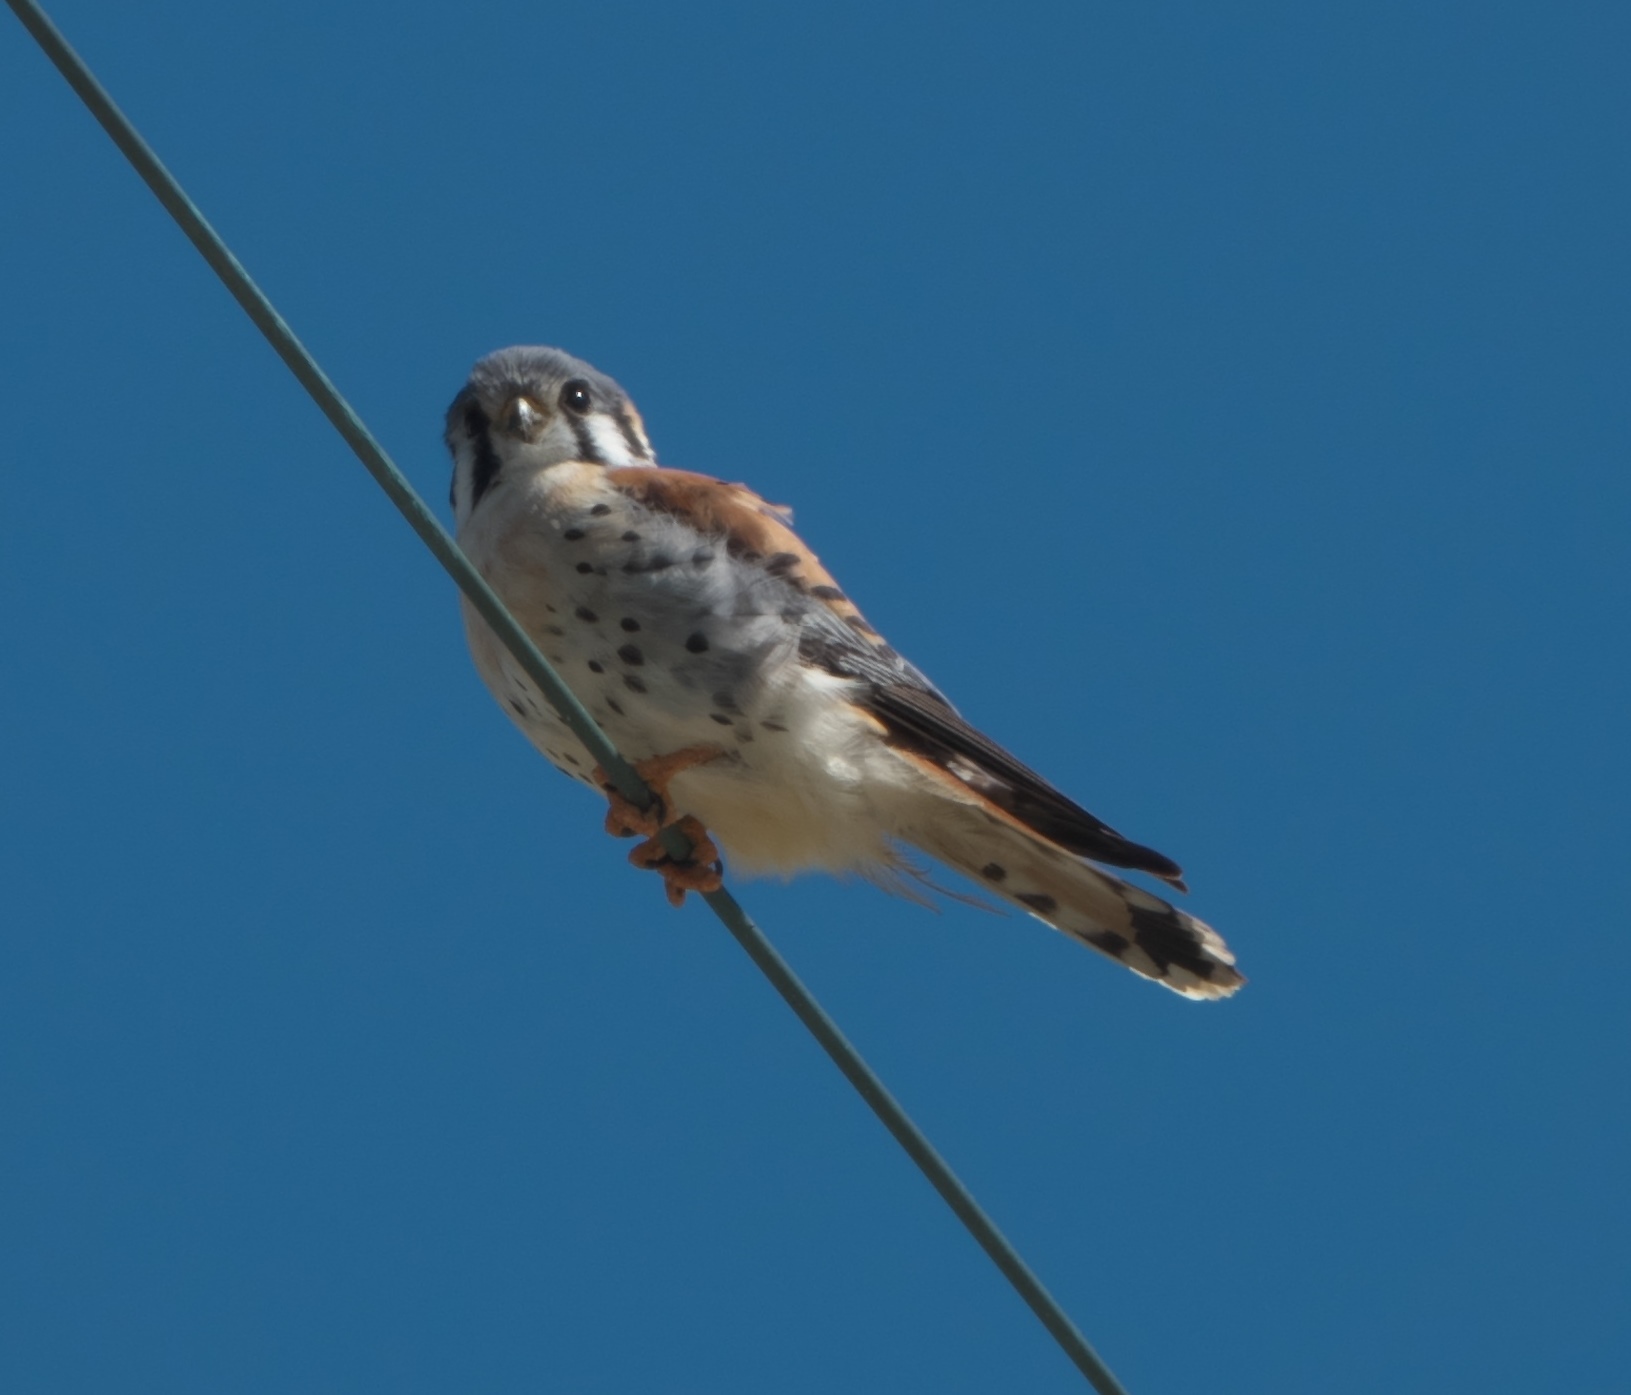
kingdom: Animalia
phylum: Chordata
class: Aves
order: Falconiformes
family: Falconidae
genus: Falco
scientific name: Falco sparverius
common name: American kestrel
